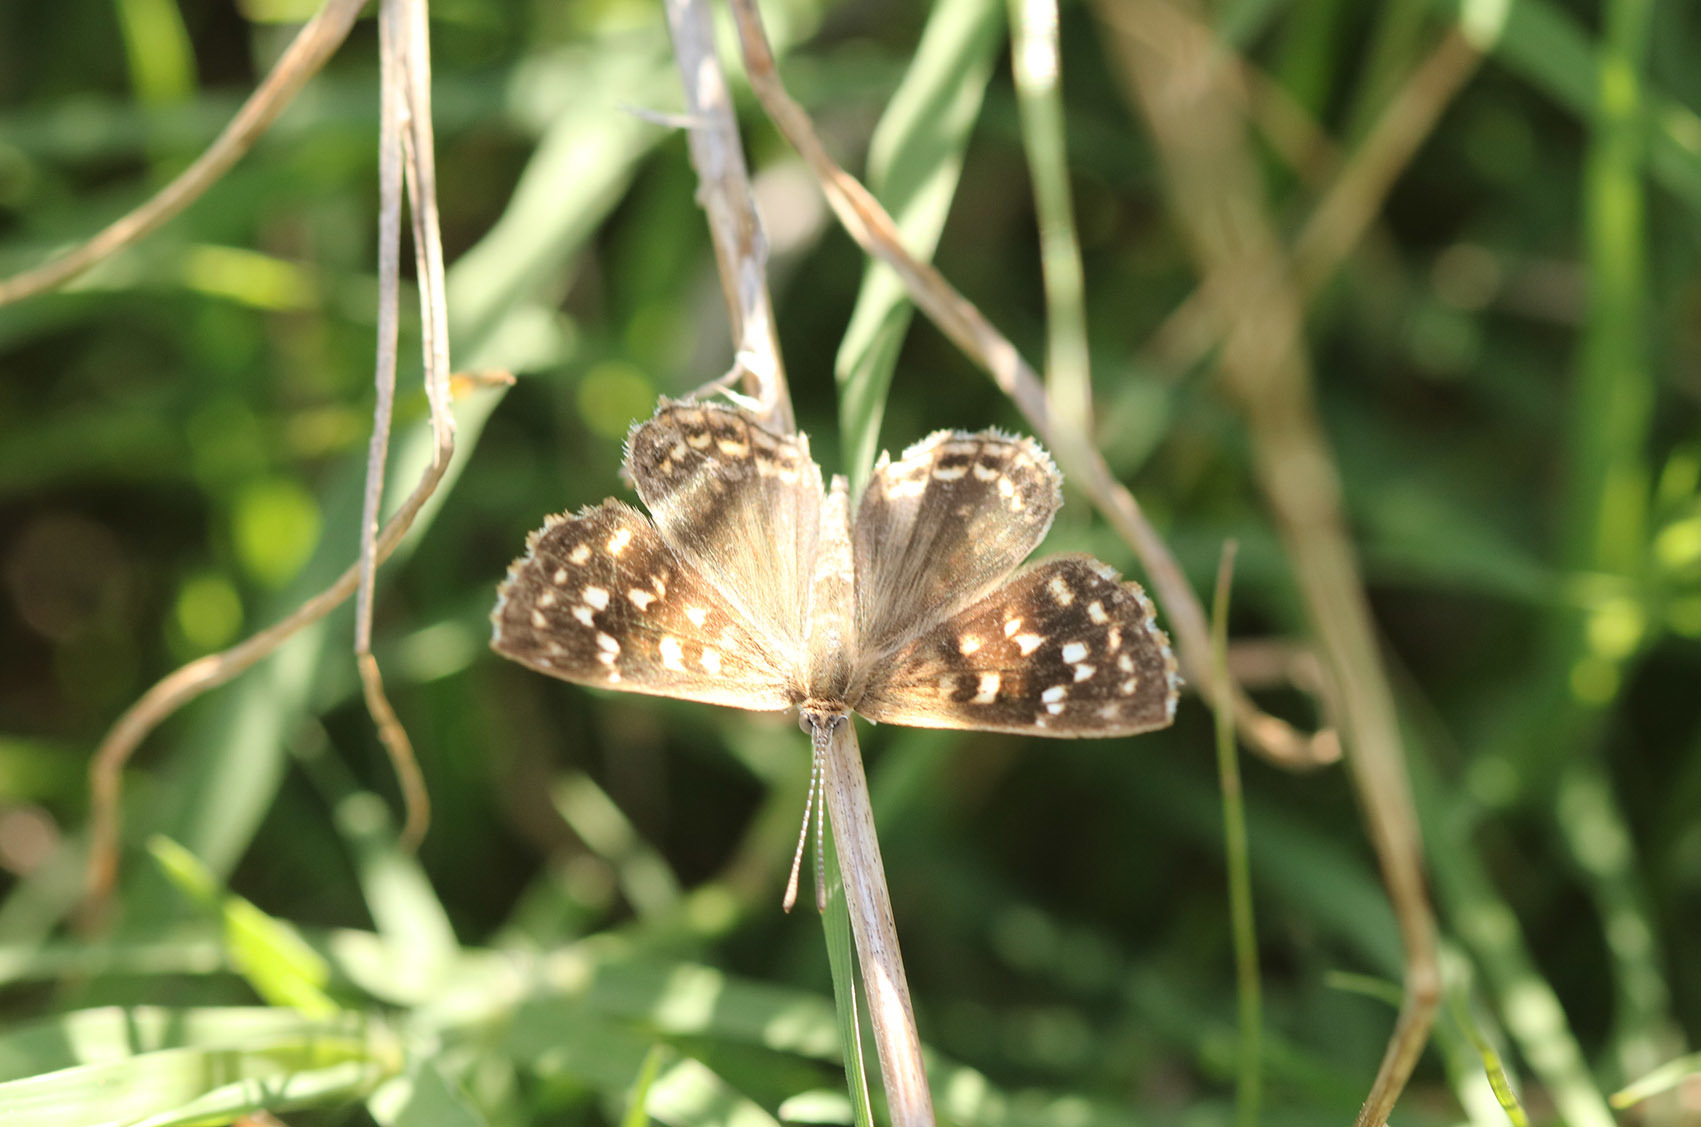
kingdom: Animalia
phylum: Arthropoda
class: Insecta
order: Lepidoptera
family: Lycaenidae
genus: Aricoris
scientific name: Aricoris indistincta
